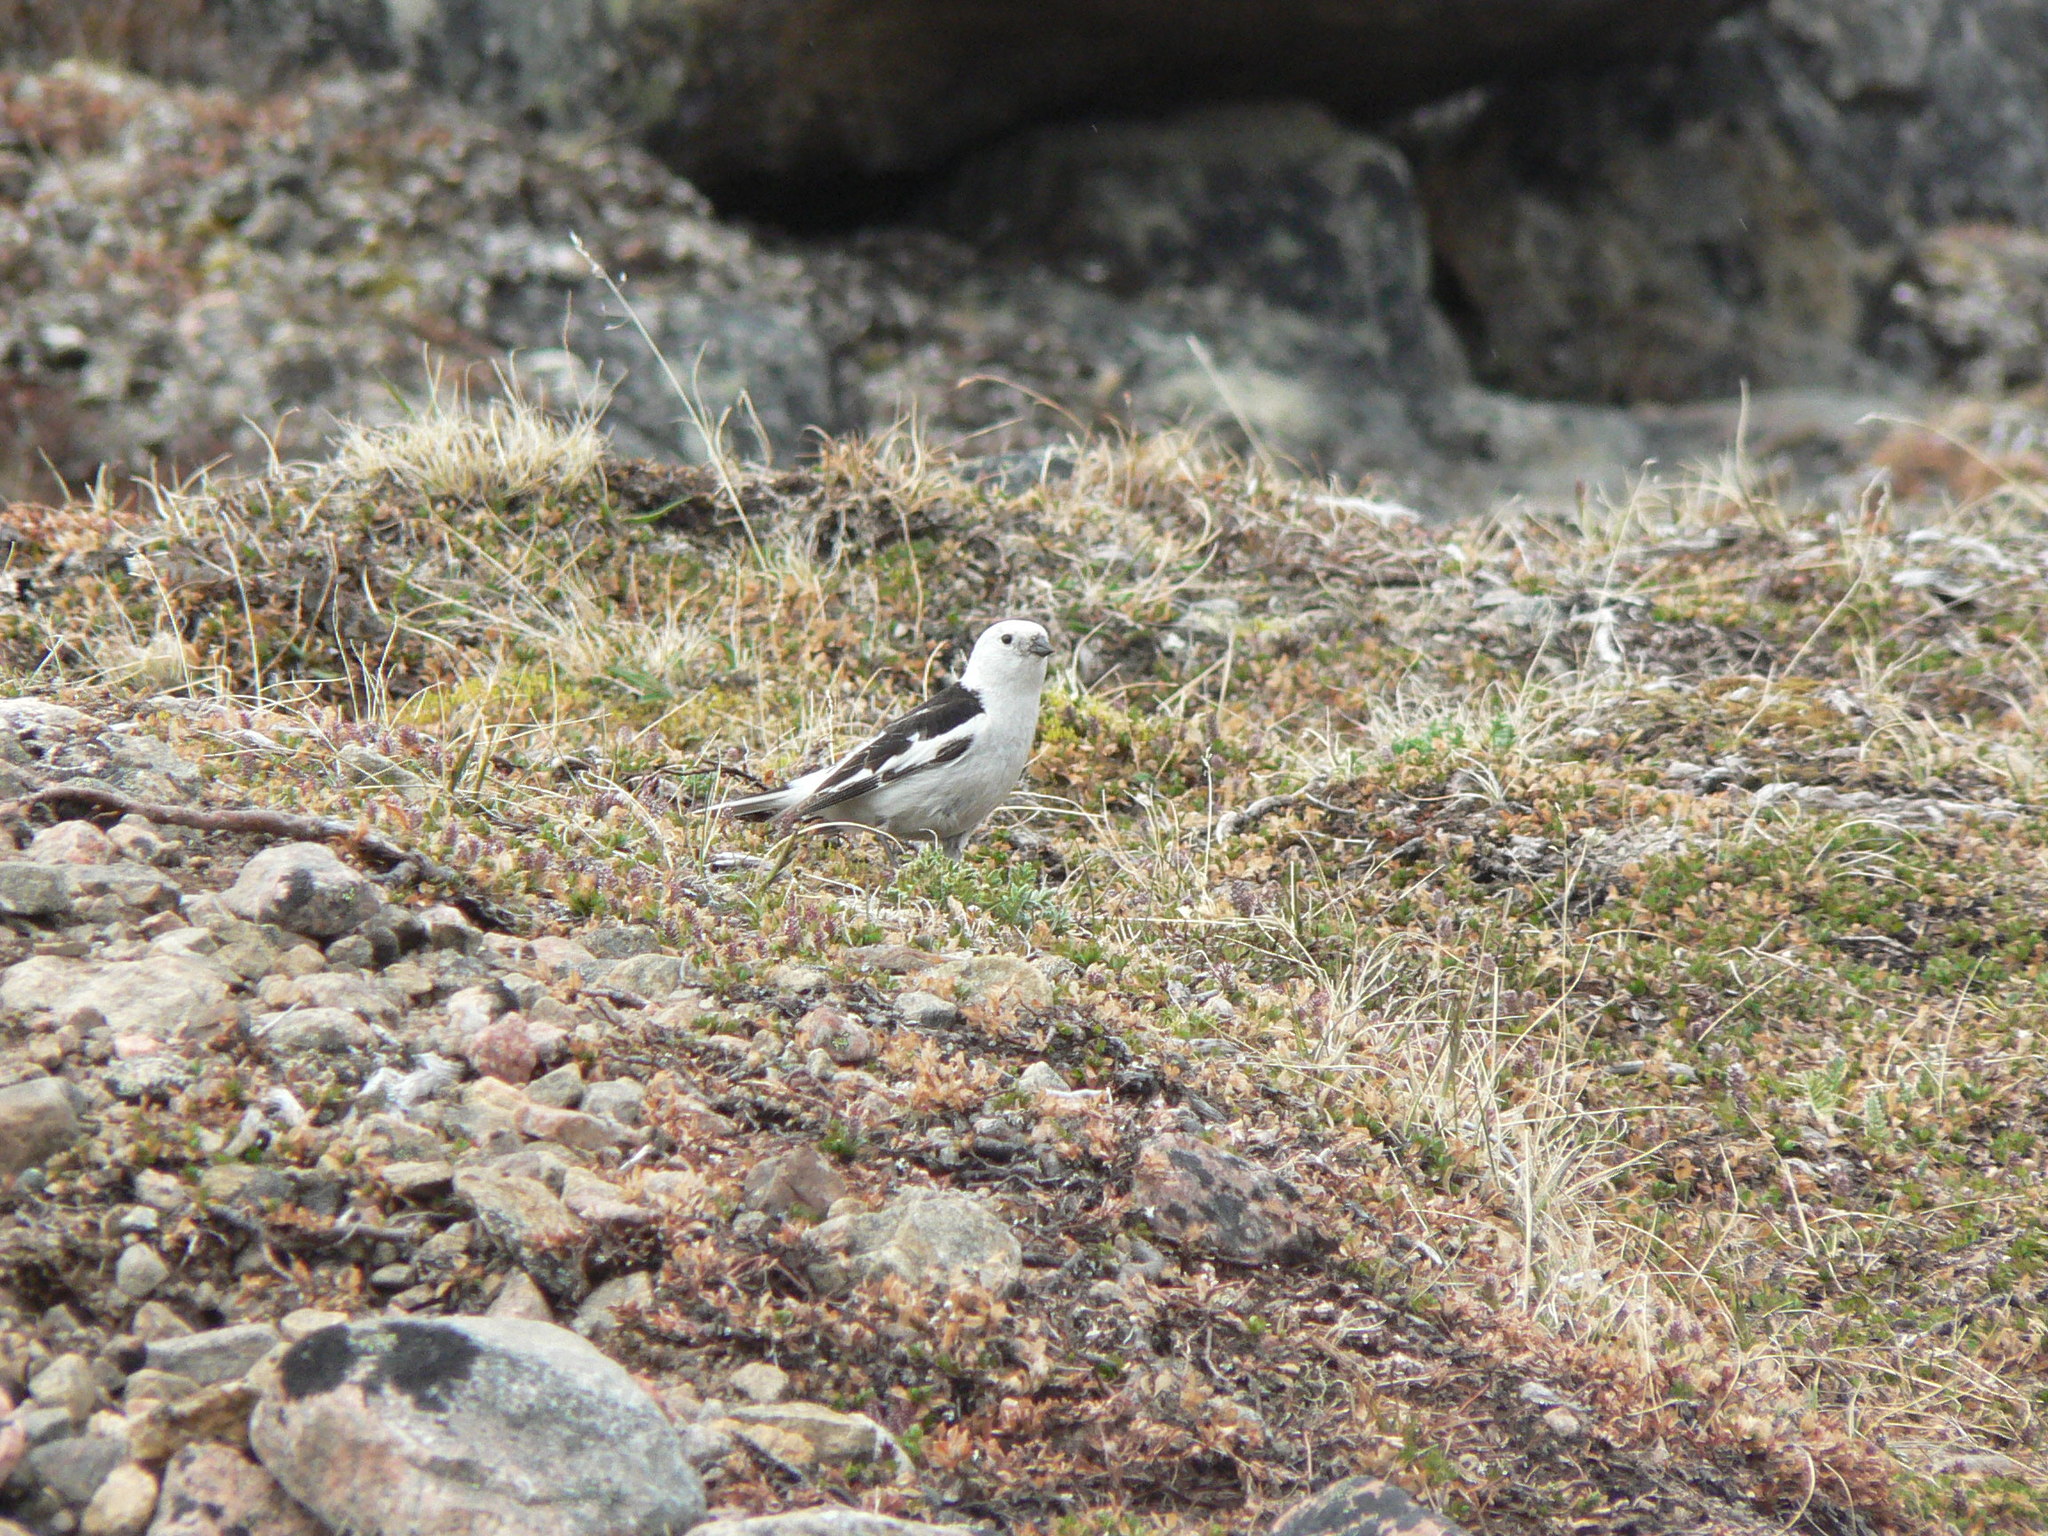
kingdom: Animalia
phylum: Chordata
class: Aves
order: Passeriformes
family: Calcariidae
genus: Plectrophenax
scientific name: Plectrophenax nivalis
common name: Snow bunting
